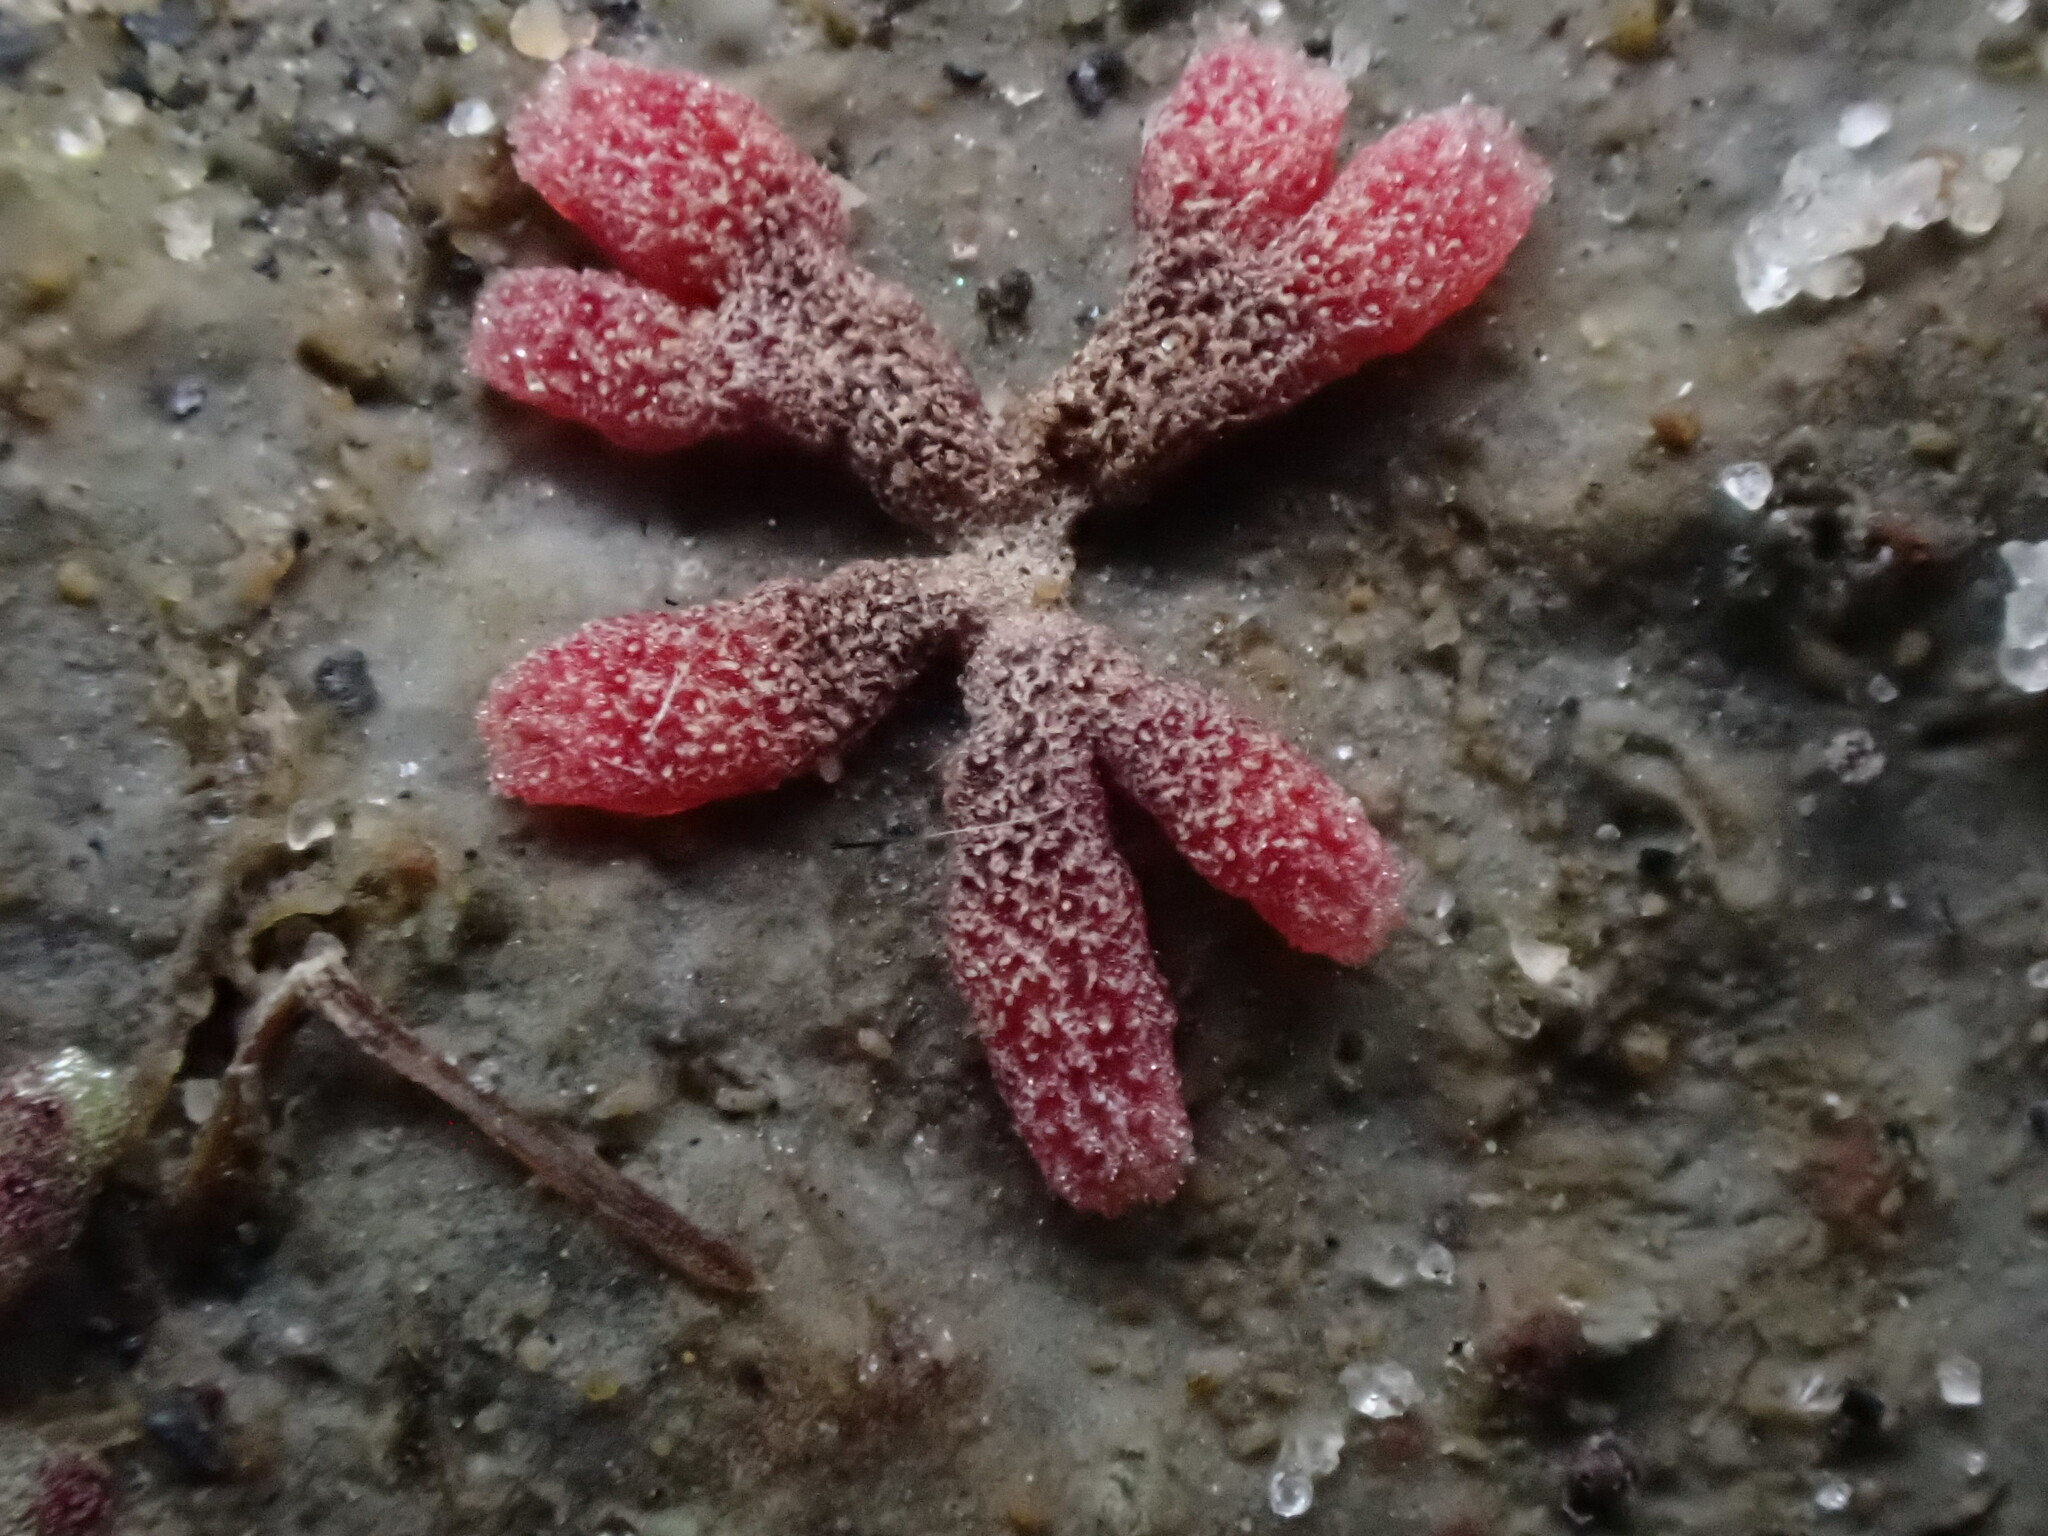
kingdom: Plantae
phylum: Marchantiophyta
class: Marchantiopsida
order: Marchantiales
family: Ricciaceae
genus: Riccia
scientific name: Riccia frostii
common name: Frost s crystalwort
